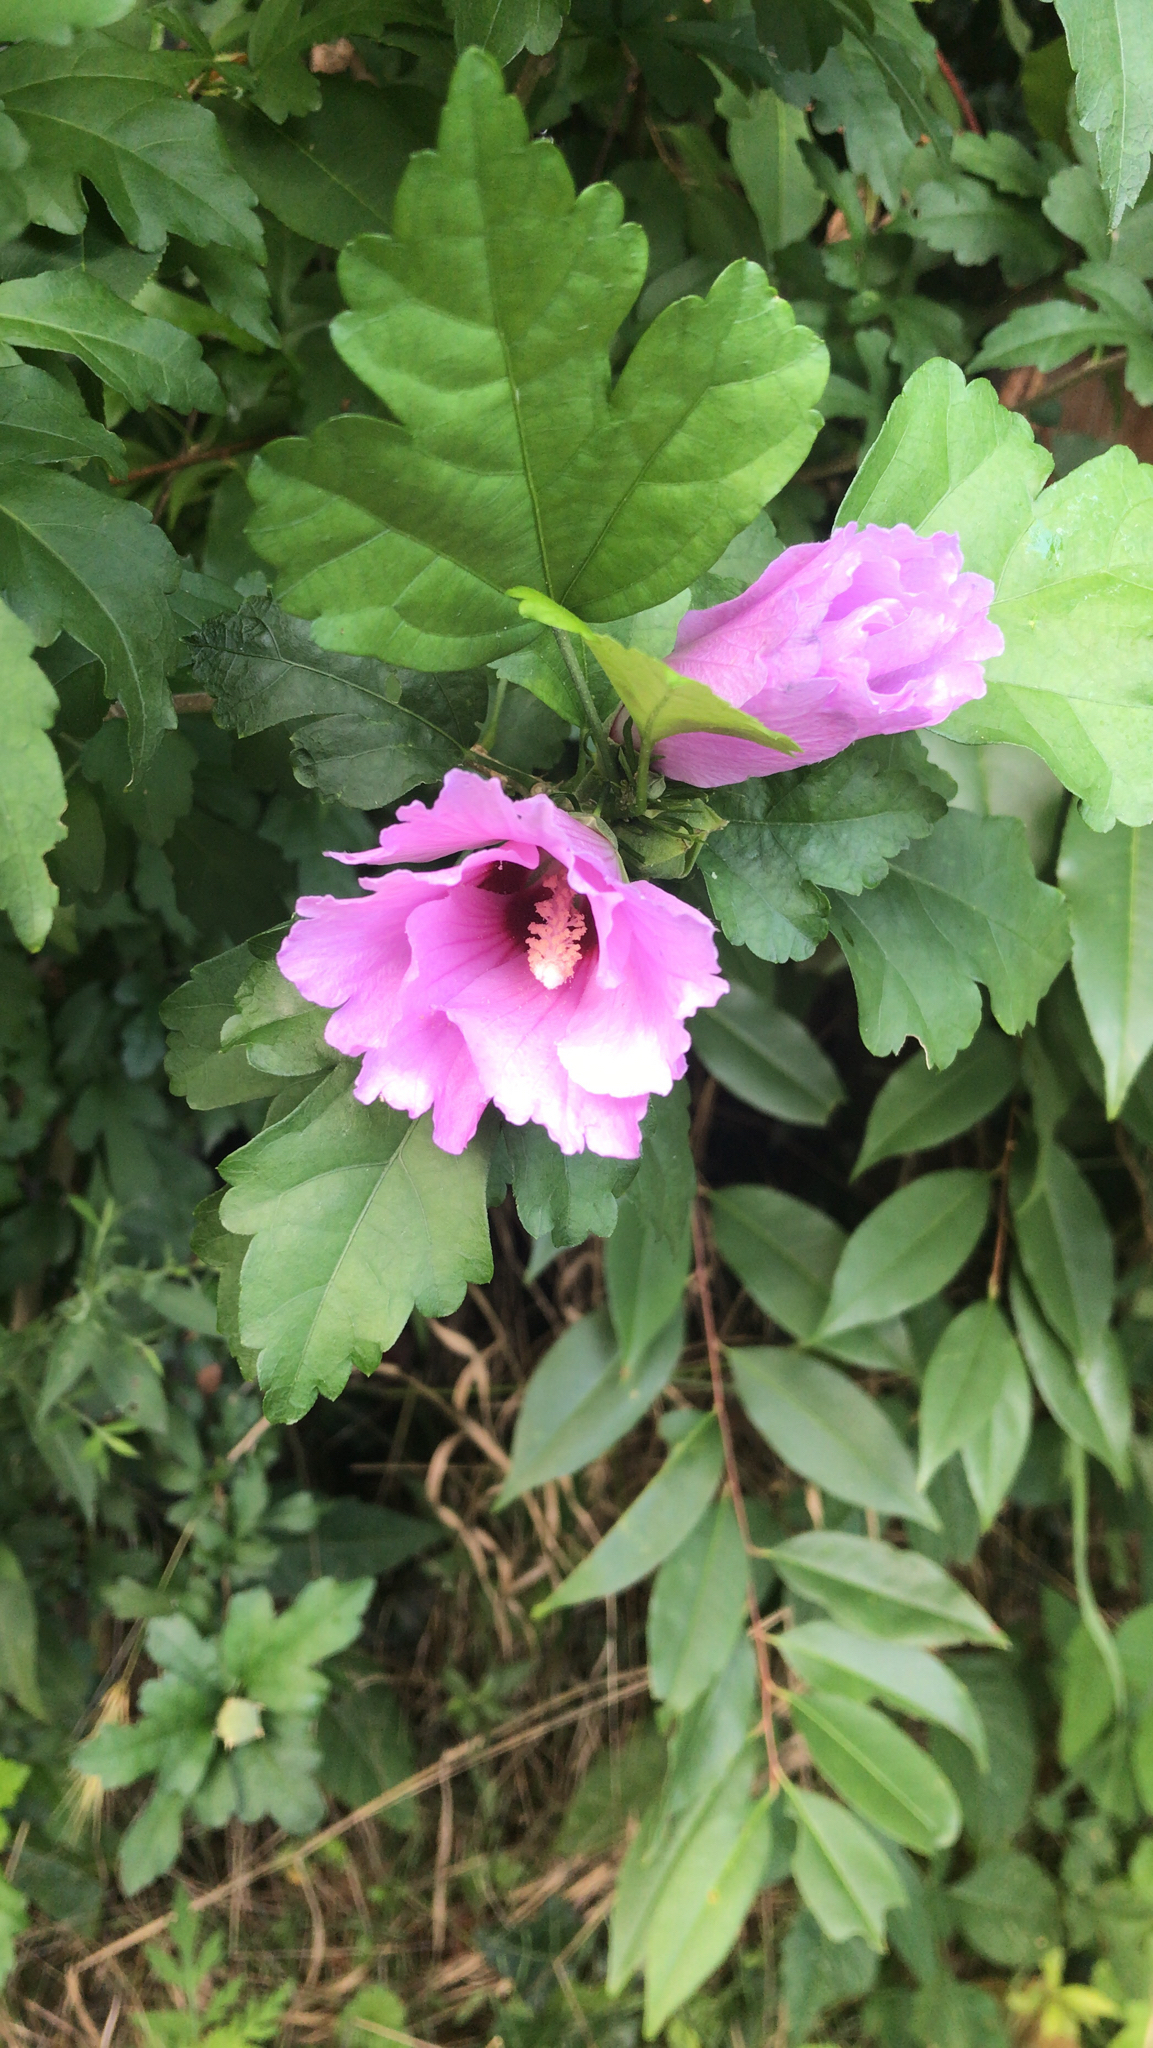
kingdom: Plantae
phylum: Tracheophyta
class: Magnoliopsida
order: Malvales
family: Malvaceae
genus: Hibiscus
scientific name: Hibiscus syriacus
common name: Syrian ketmia
